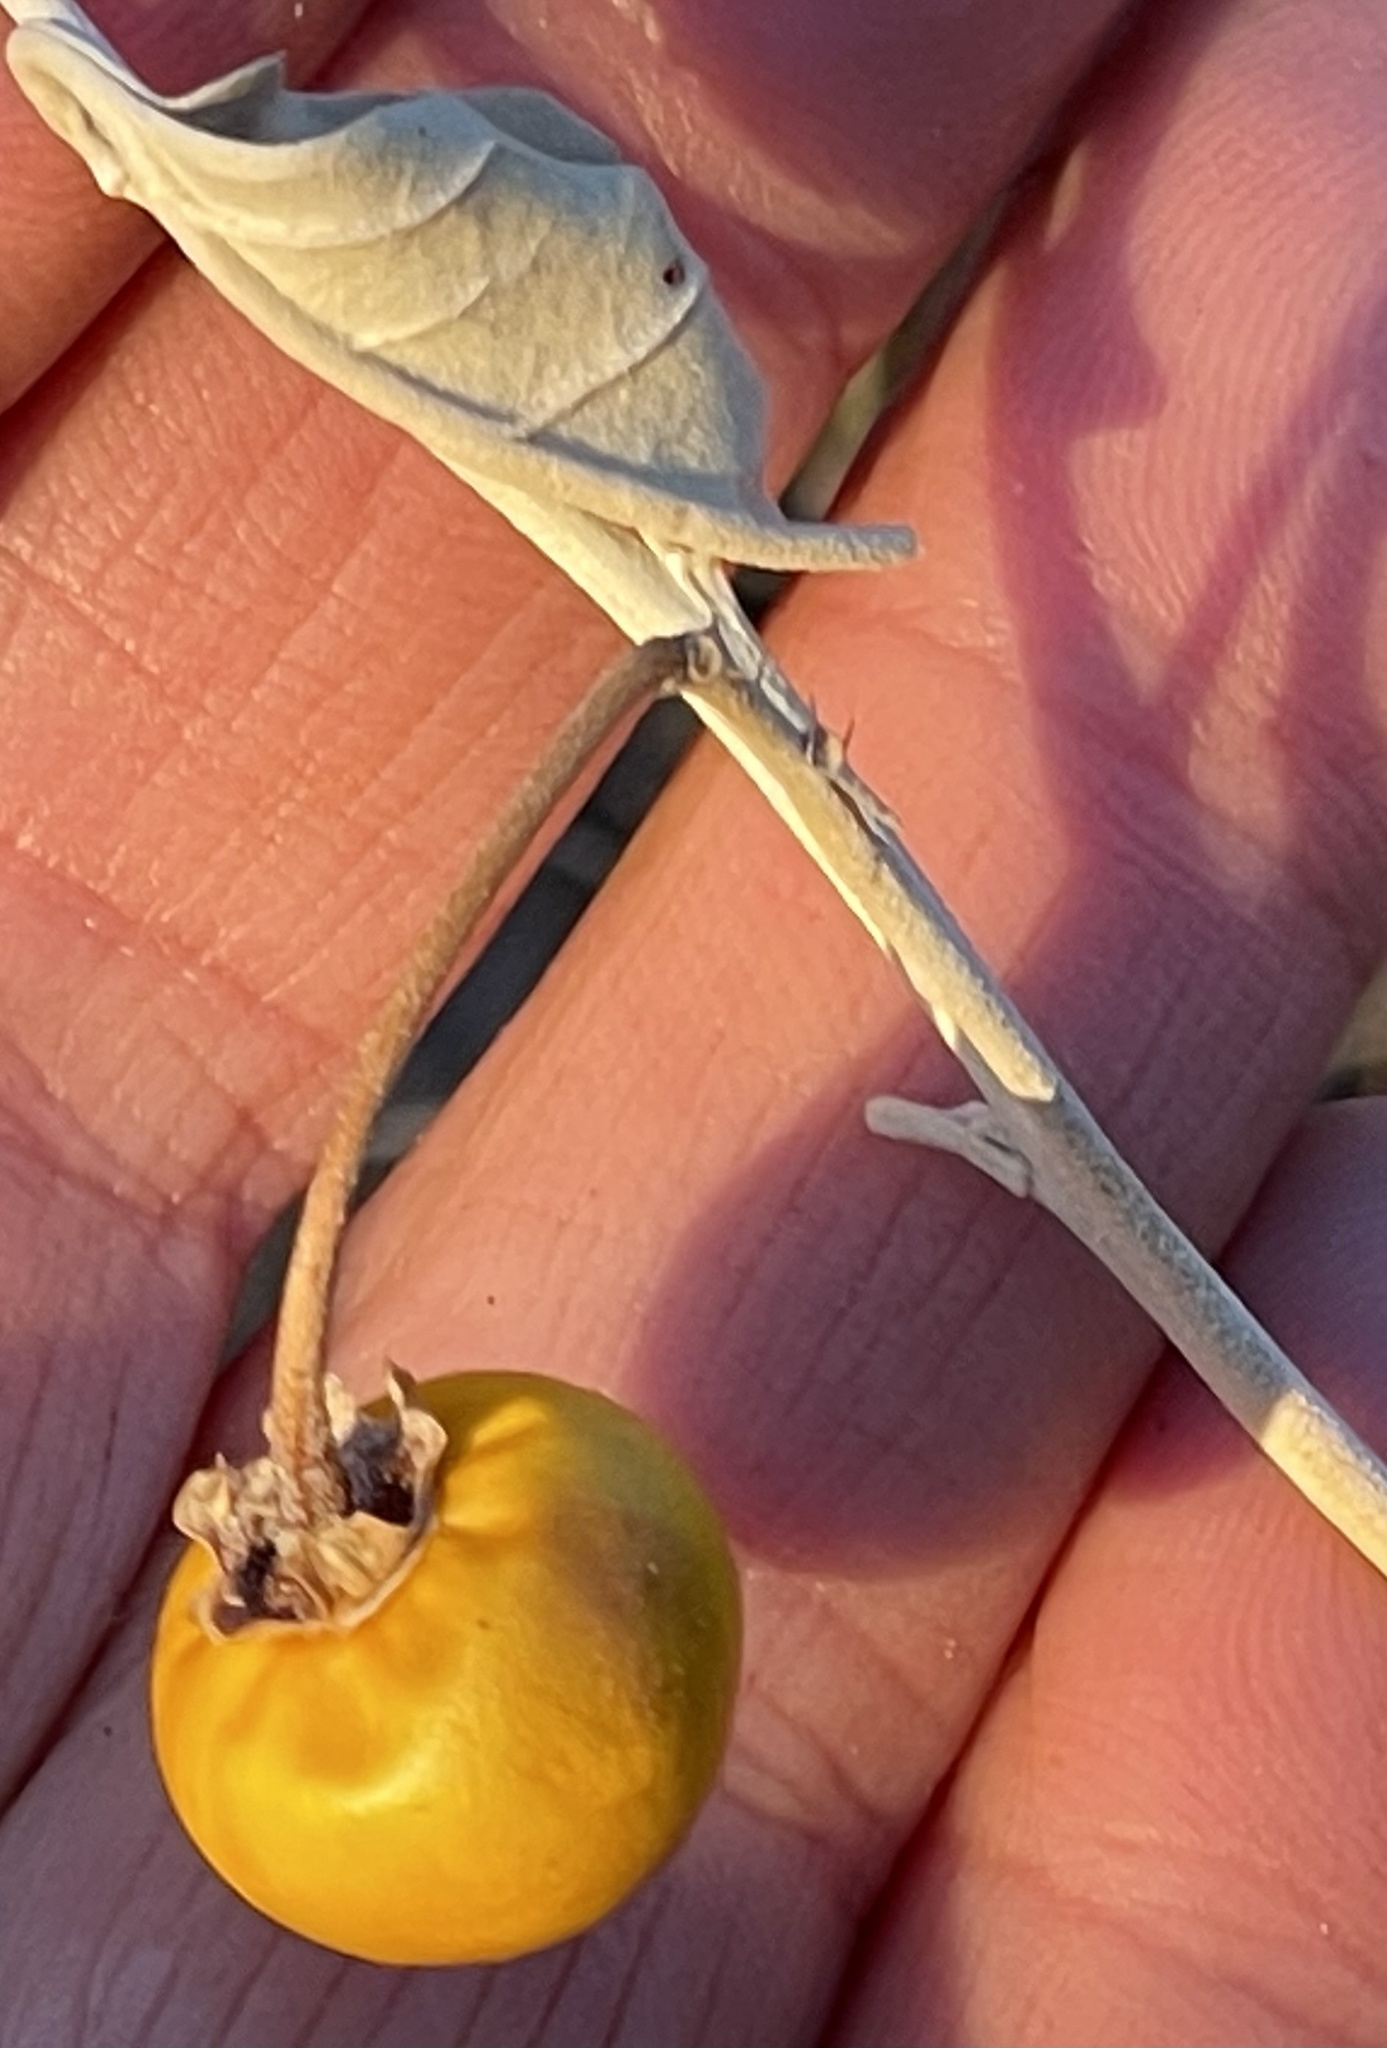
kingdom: Plantae
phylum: Tracheophyta
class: Magnoliopsida
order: Solanales
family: Solanaceae
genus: Solanum
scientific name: Solanum elaeagnifolium
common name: Silverleaf nightshade
